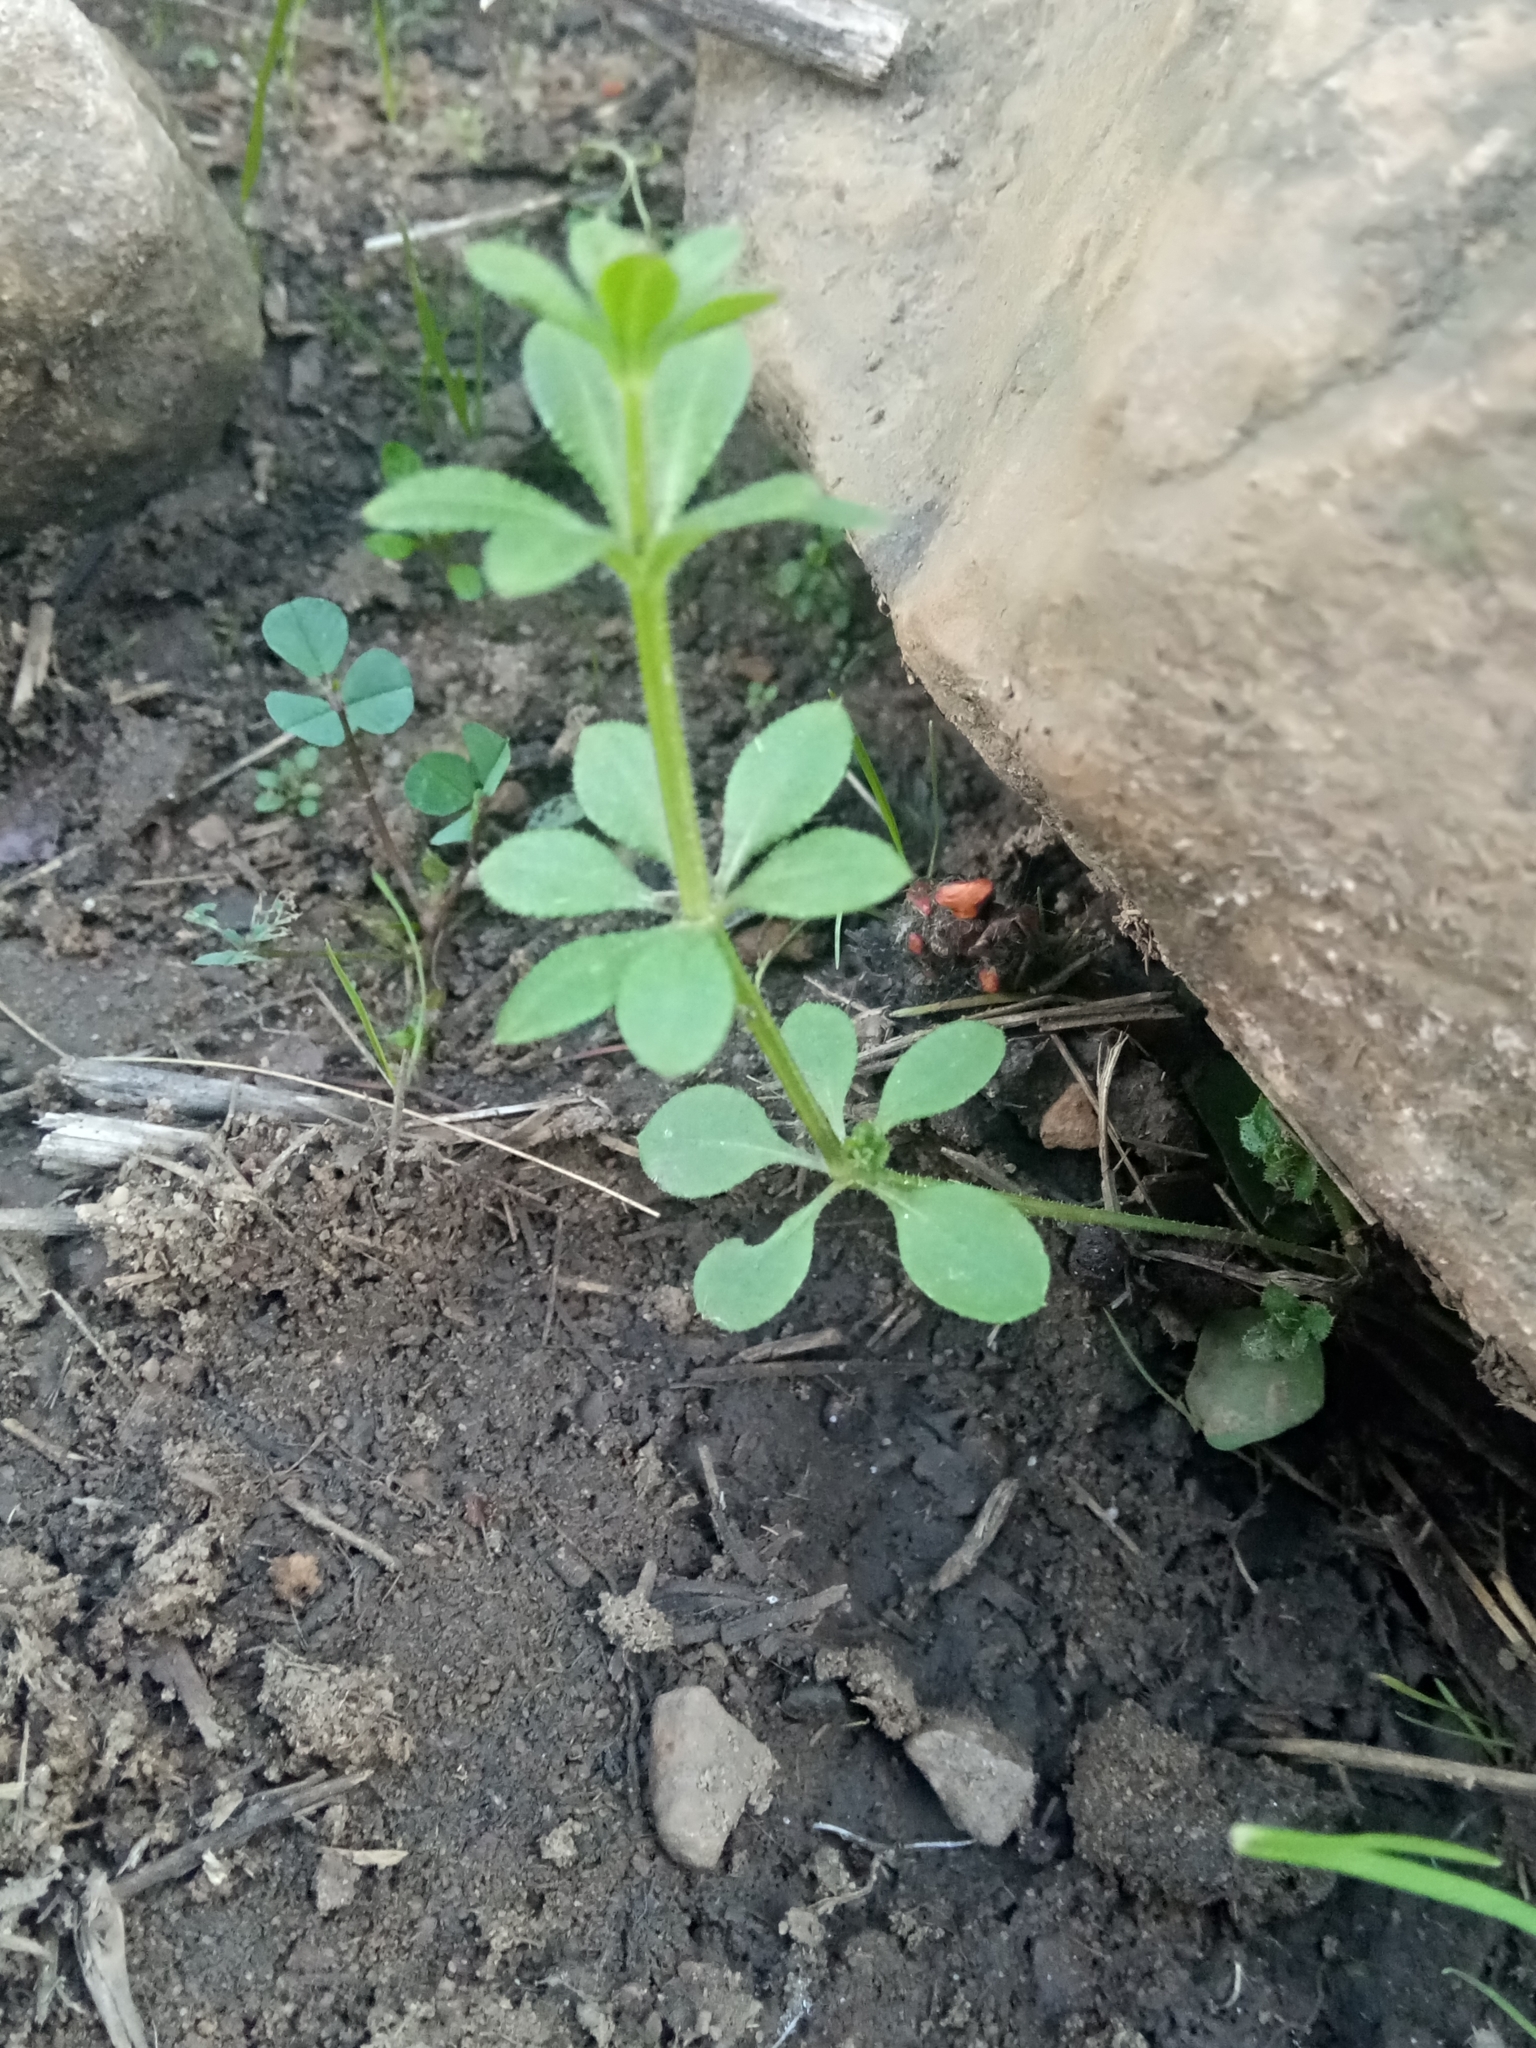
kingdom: Plantae
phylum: Tracheophyta
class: Magnoliopsida
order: Gentianales
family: Rubiaceae
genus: Galium
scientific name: Galium aparine
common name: Cleavers
